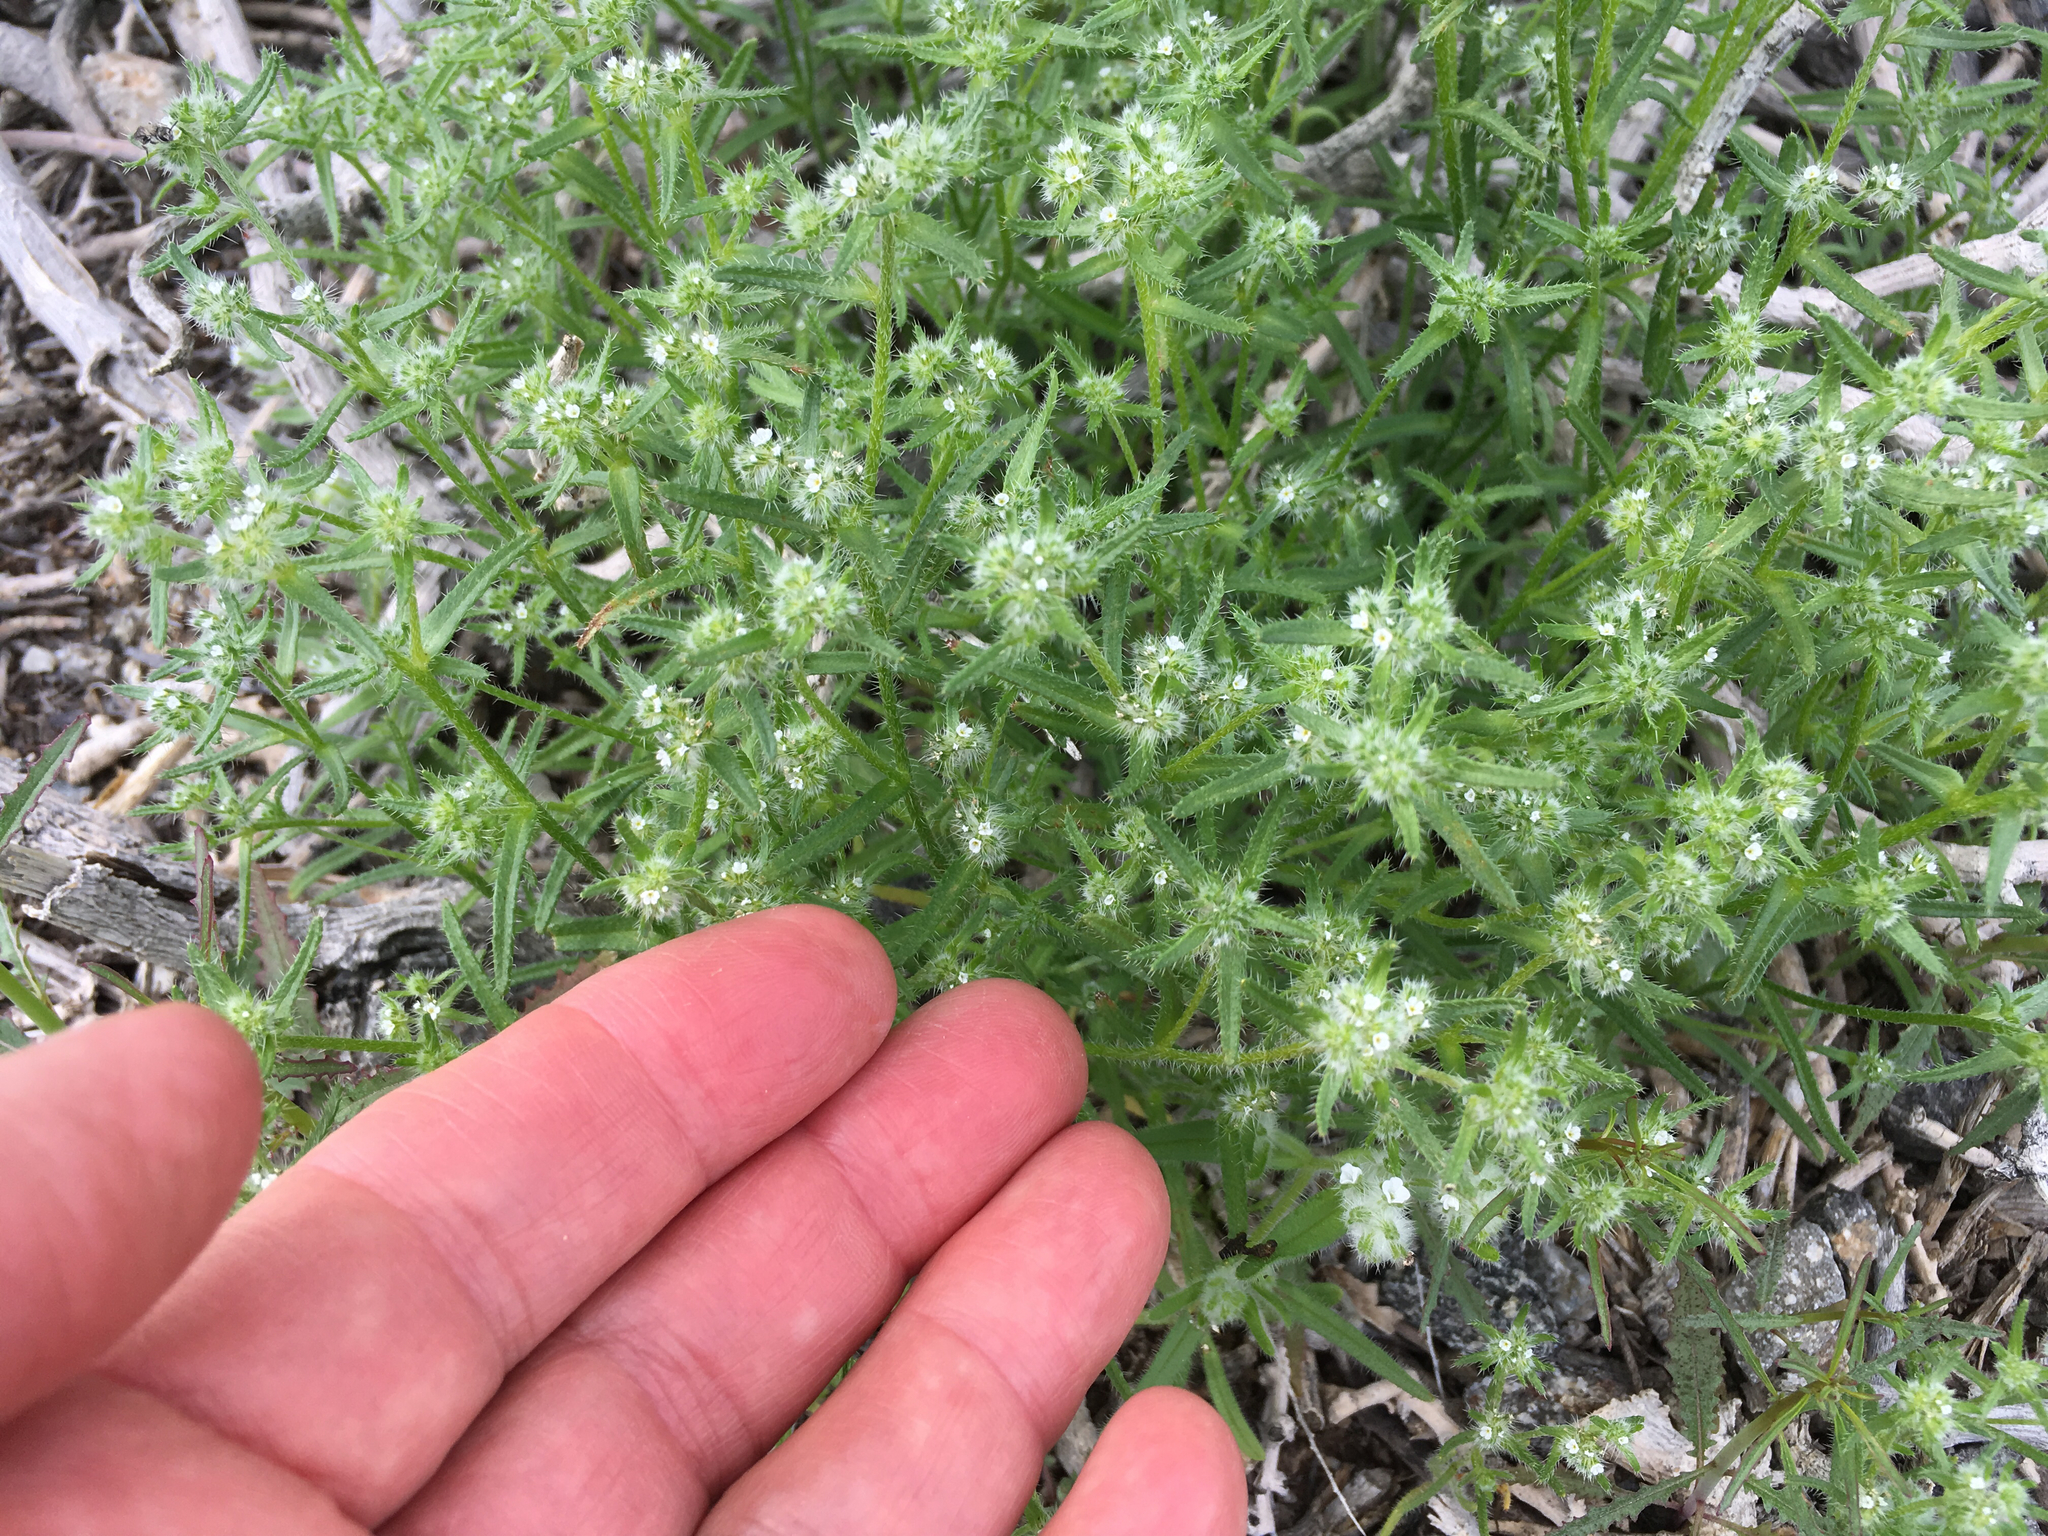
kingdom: Plantae
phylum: Tracheophyta
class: Magnoliopsida
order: Boraginales
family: Boraginaceae
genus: Cryptantha
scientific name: Cryptantha maritima
